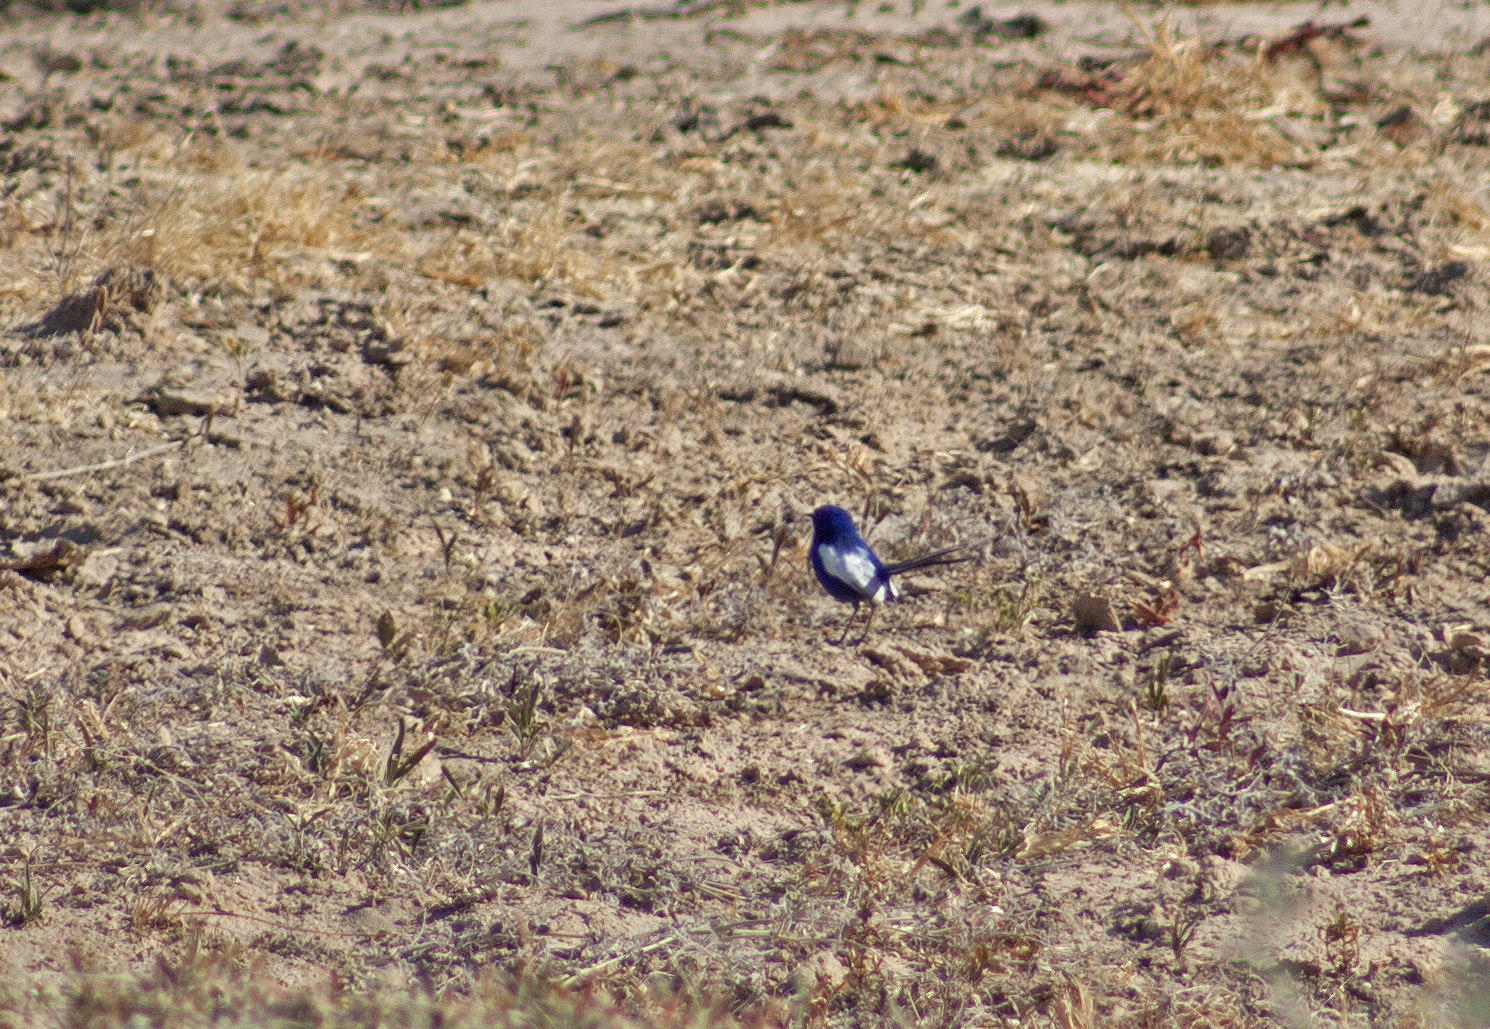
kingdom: Animalia
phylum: Chordata
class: Aves
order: Passeriformes
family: Maluridae
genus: Malurus
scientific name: Malurus leucopterus
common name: White-winged fairywren
